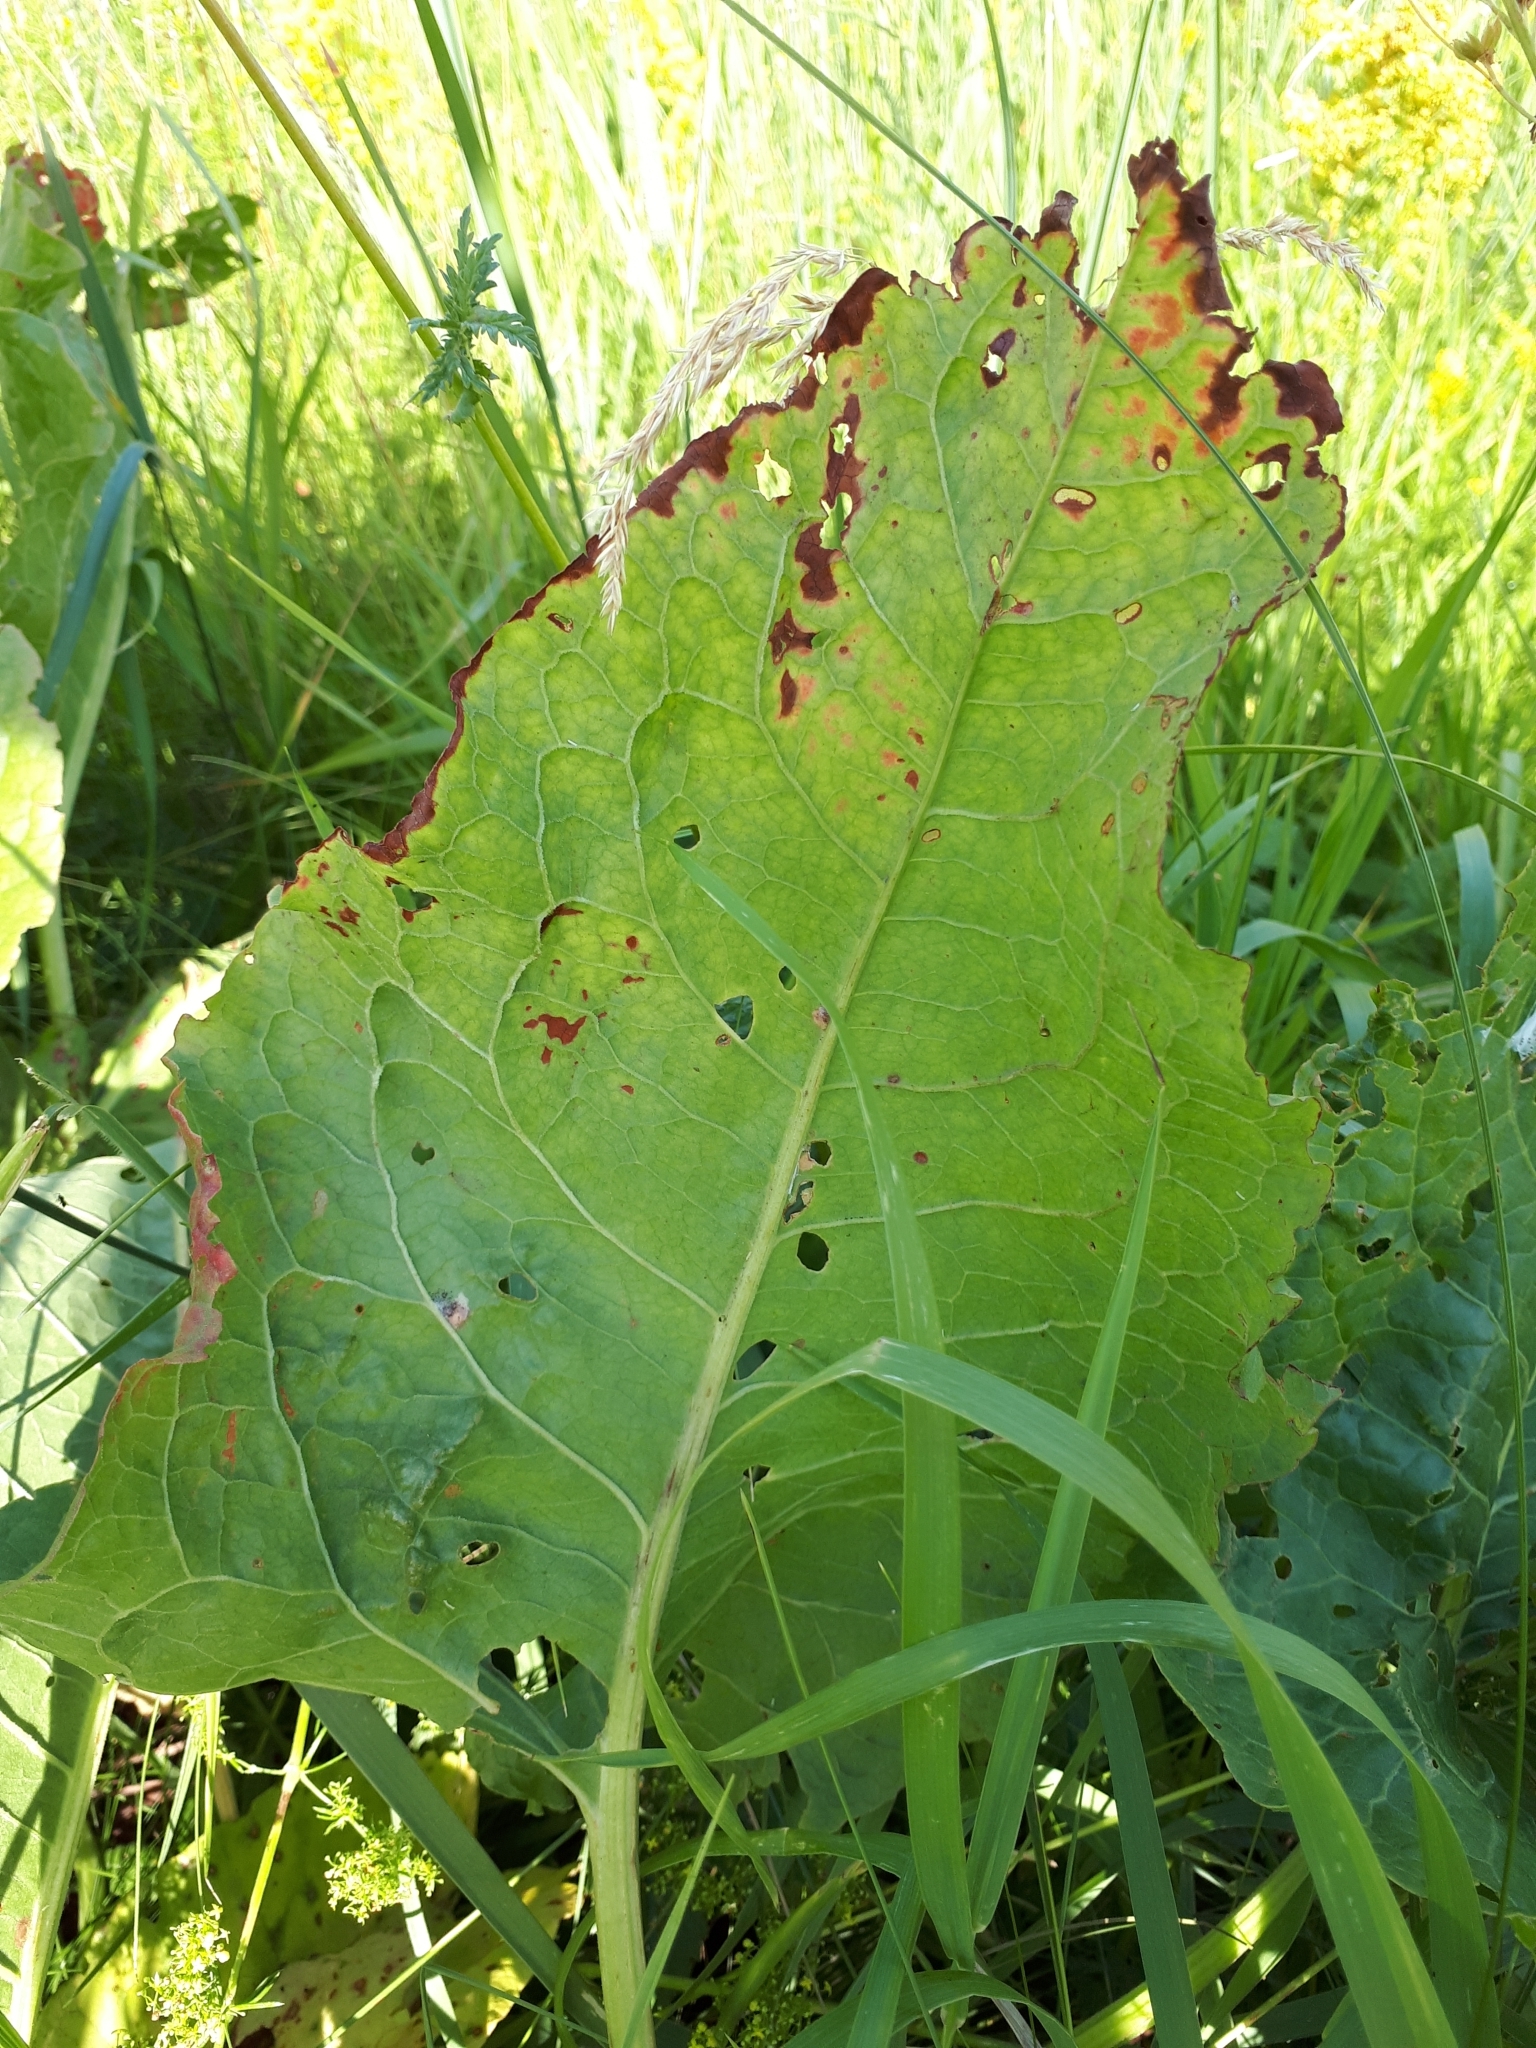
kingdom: Plantae
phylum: Tracheophyta
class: Magnoliopsida
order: Caryophyllales
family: Polygonaceae
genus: Rumex
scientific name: Rumex confertus
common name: Russian dock
